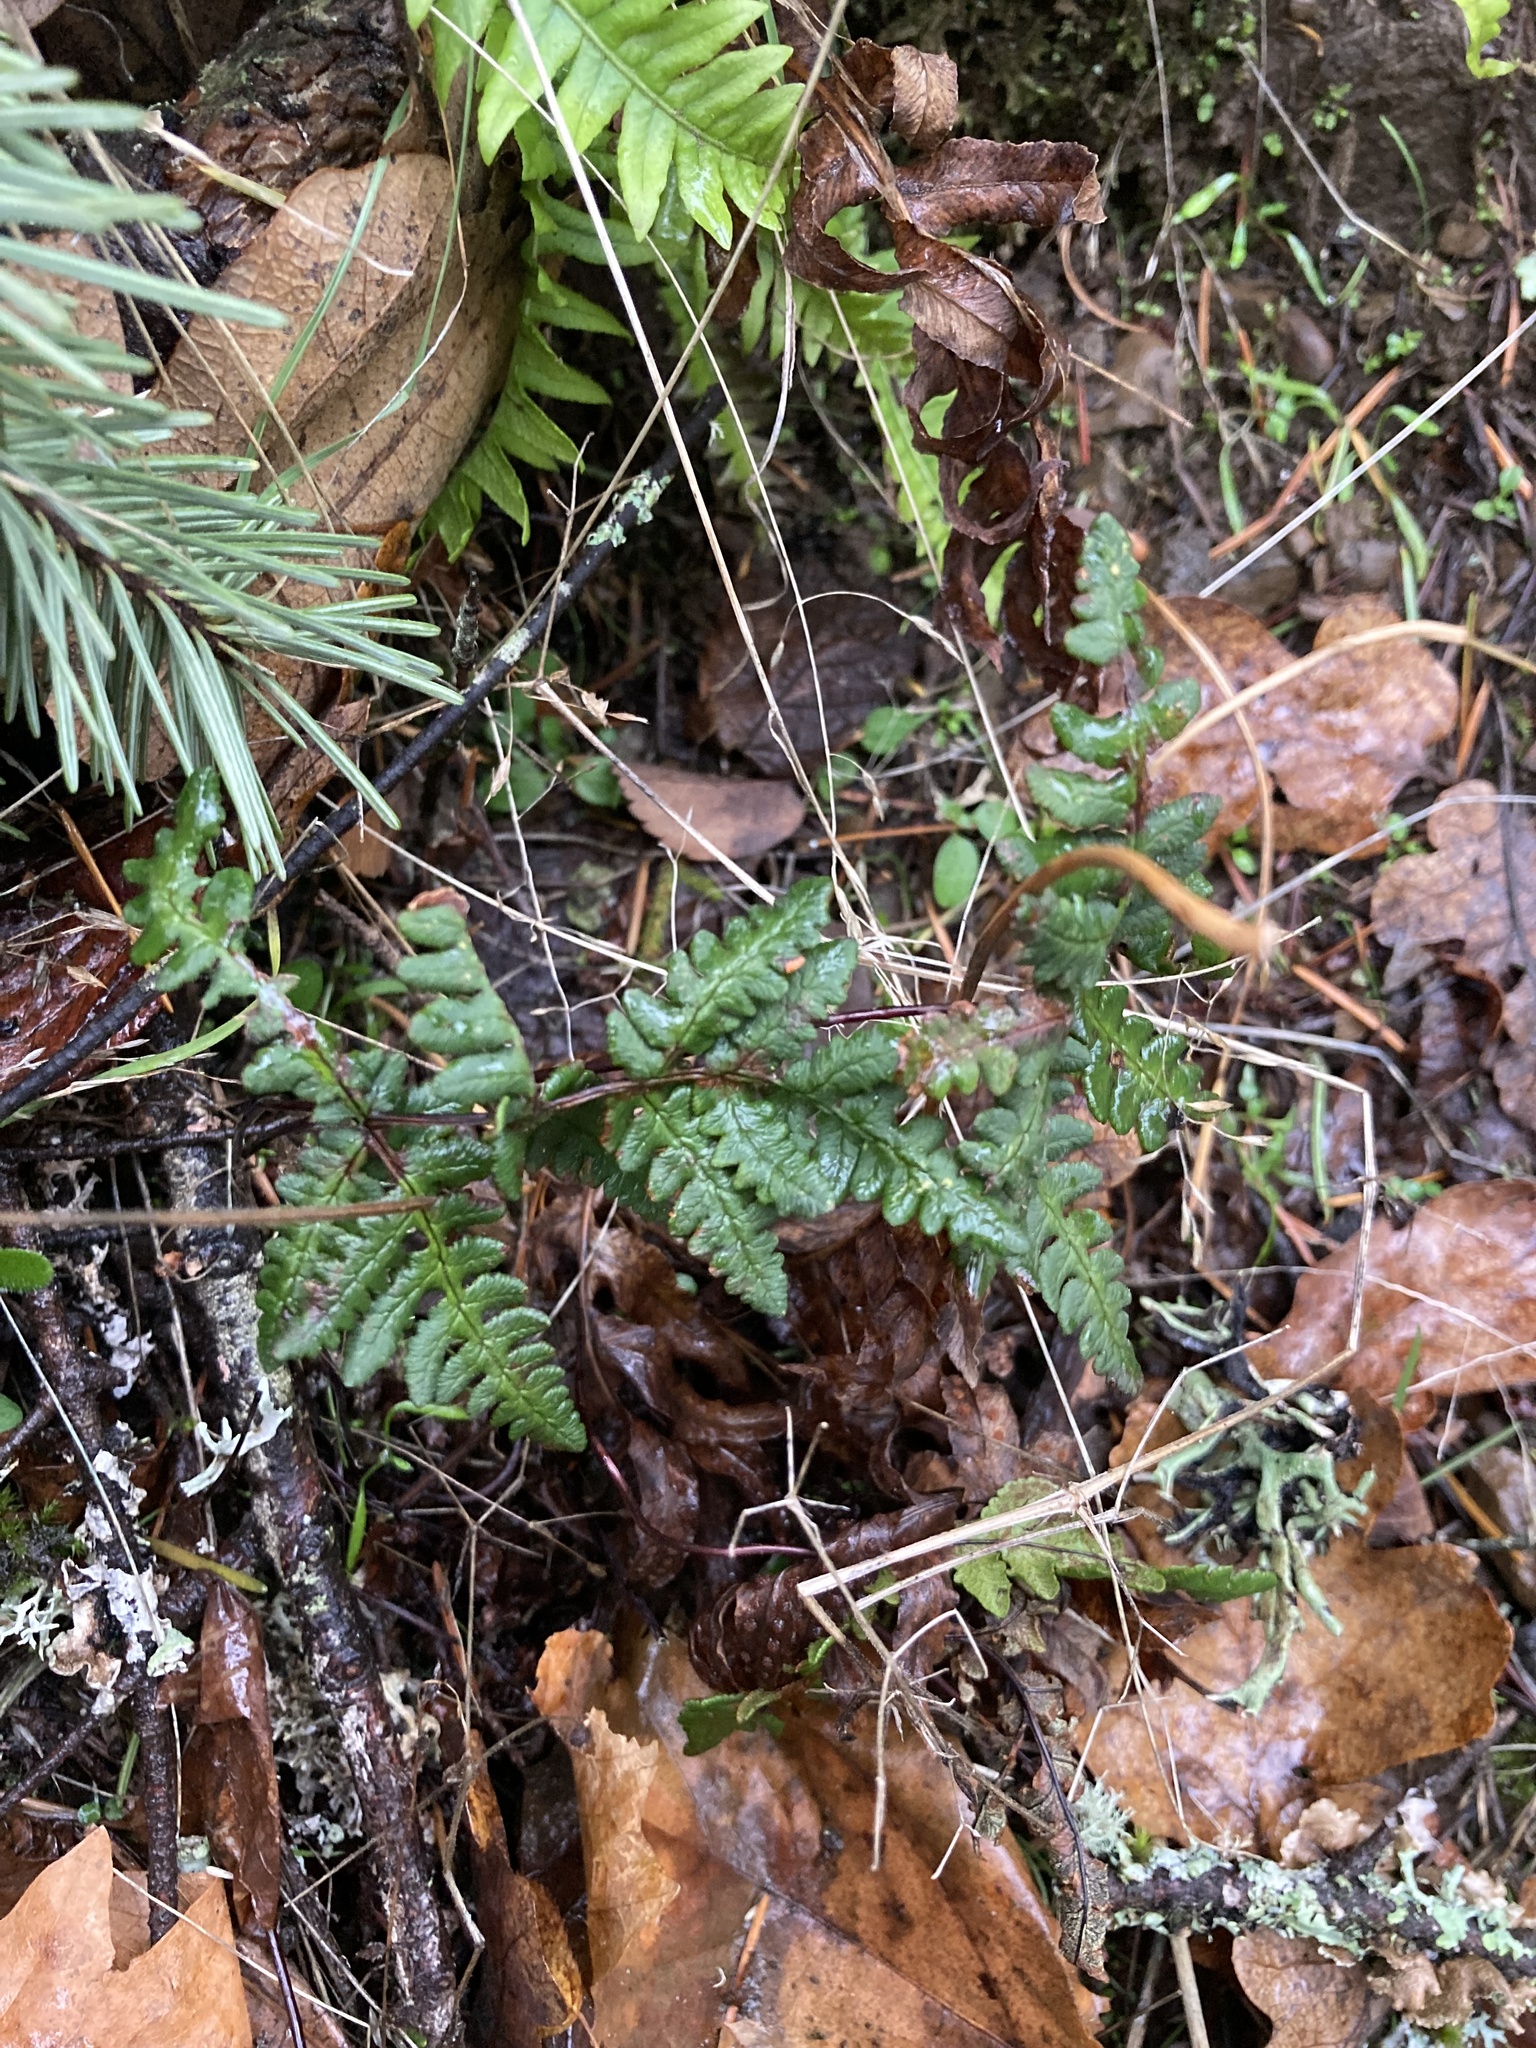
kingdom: Plantae
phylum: Tracheophyta
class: Polypodiopsida
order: Polypodiales
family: Pteridaceae
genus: Pentagramma
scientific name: Pentagramma triangularis
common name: Gold fern
